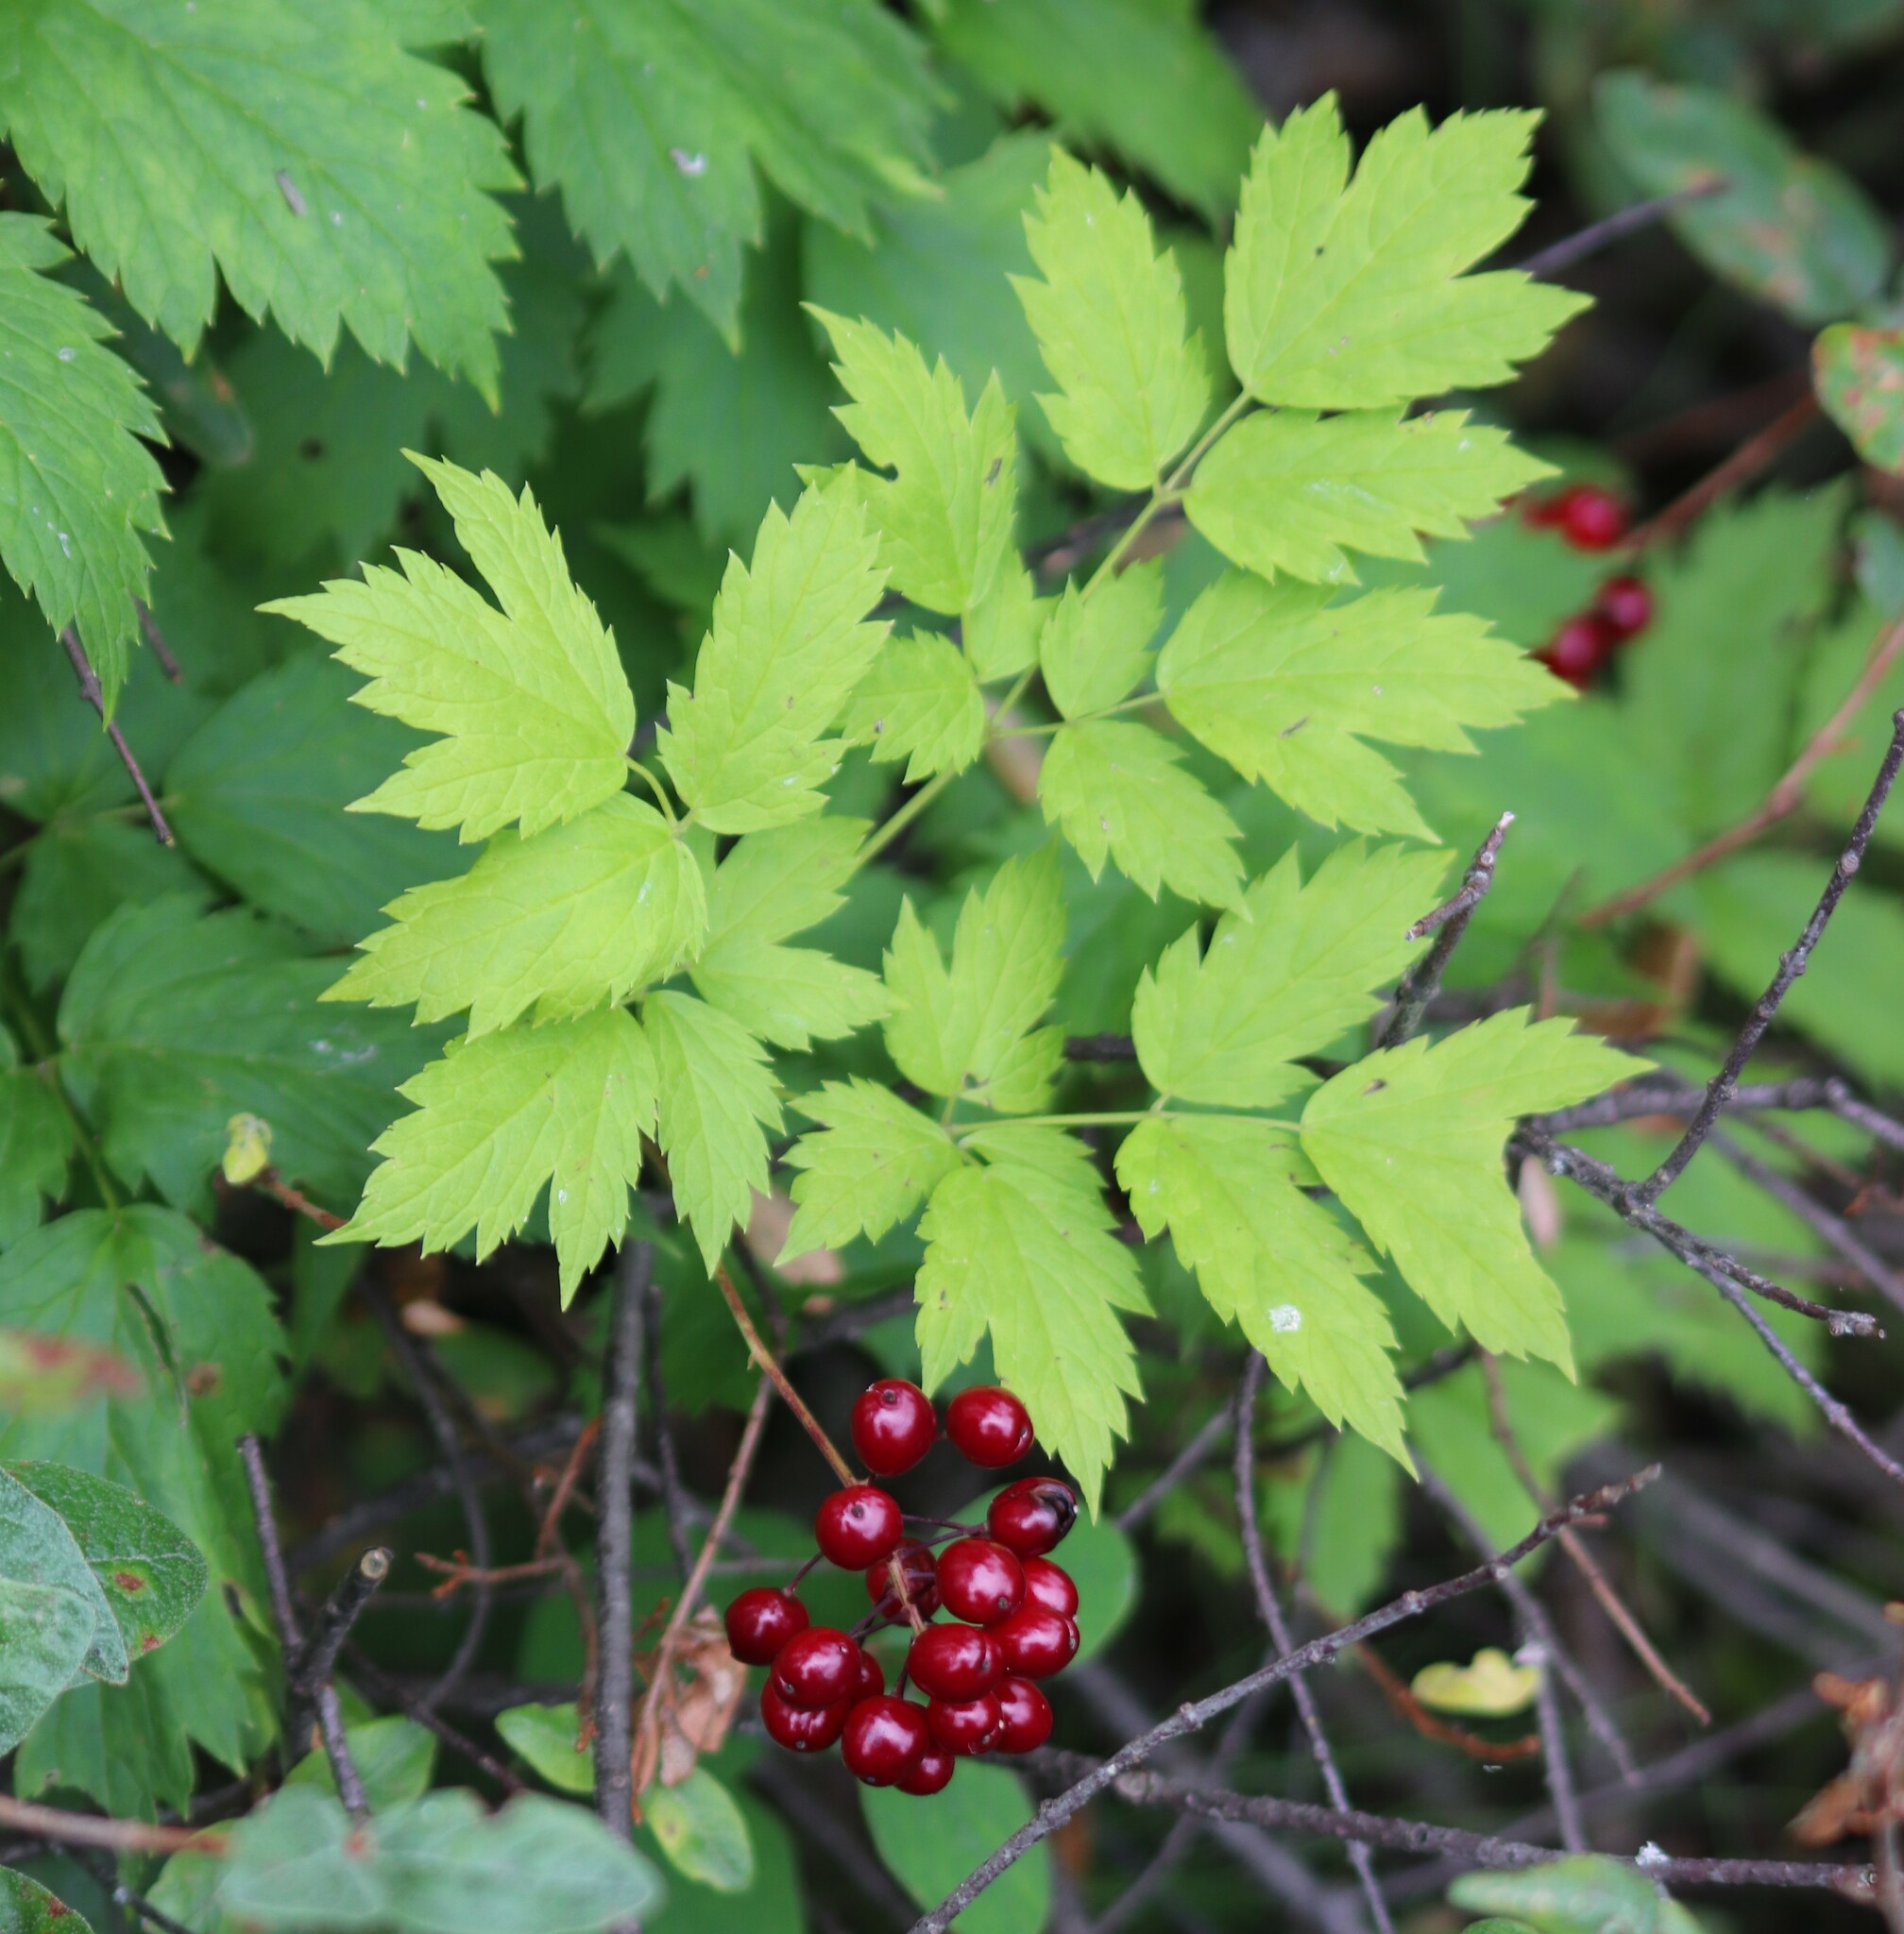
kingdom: Plantae
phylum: Tracheophyta
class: Magnoliopsida
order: Ranunculales
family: Ranunculaceae
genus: Actaea
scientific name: Actaea rubra
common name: Red baneberry
